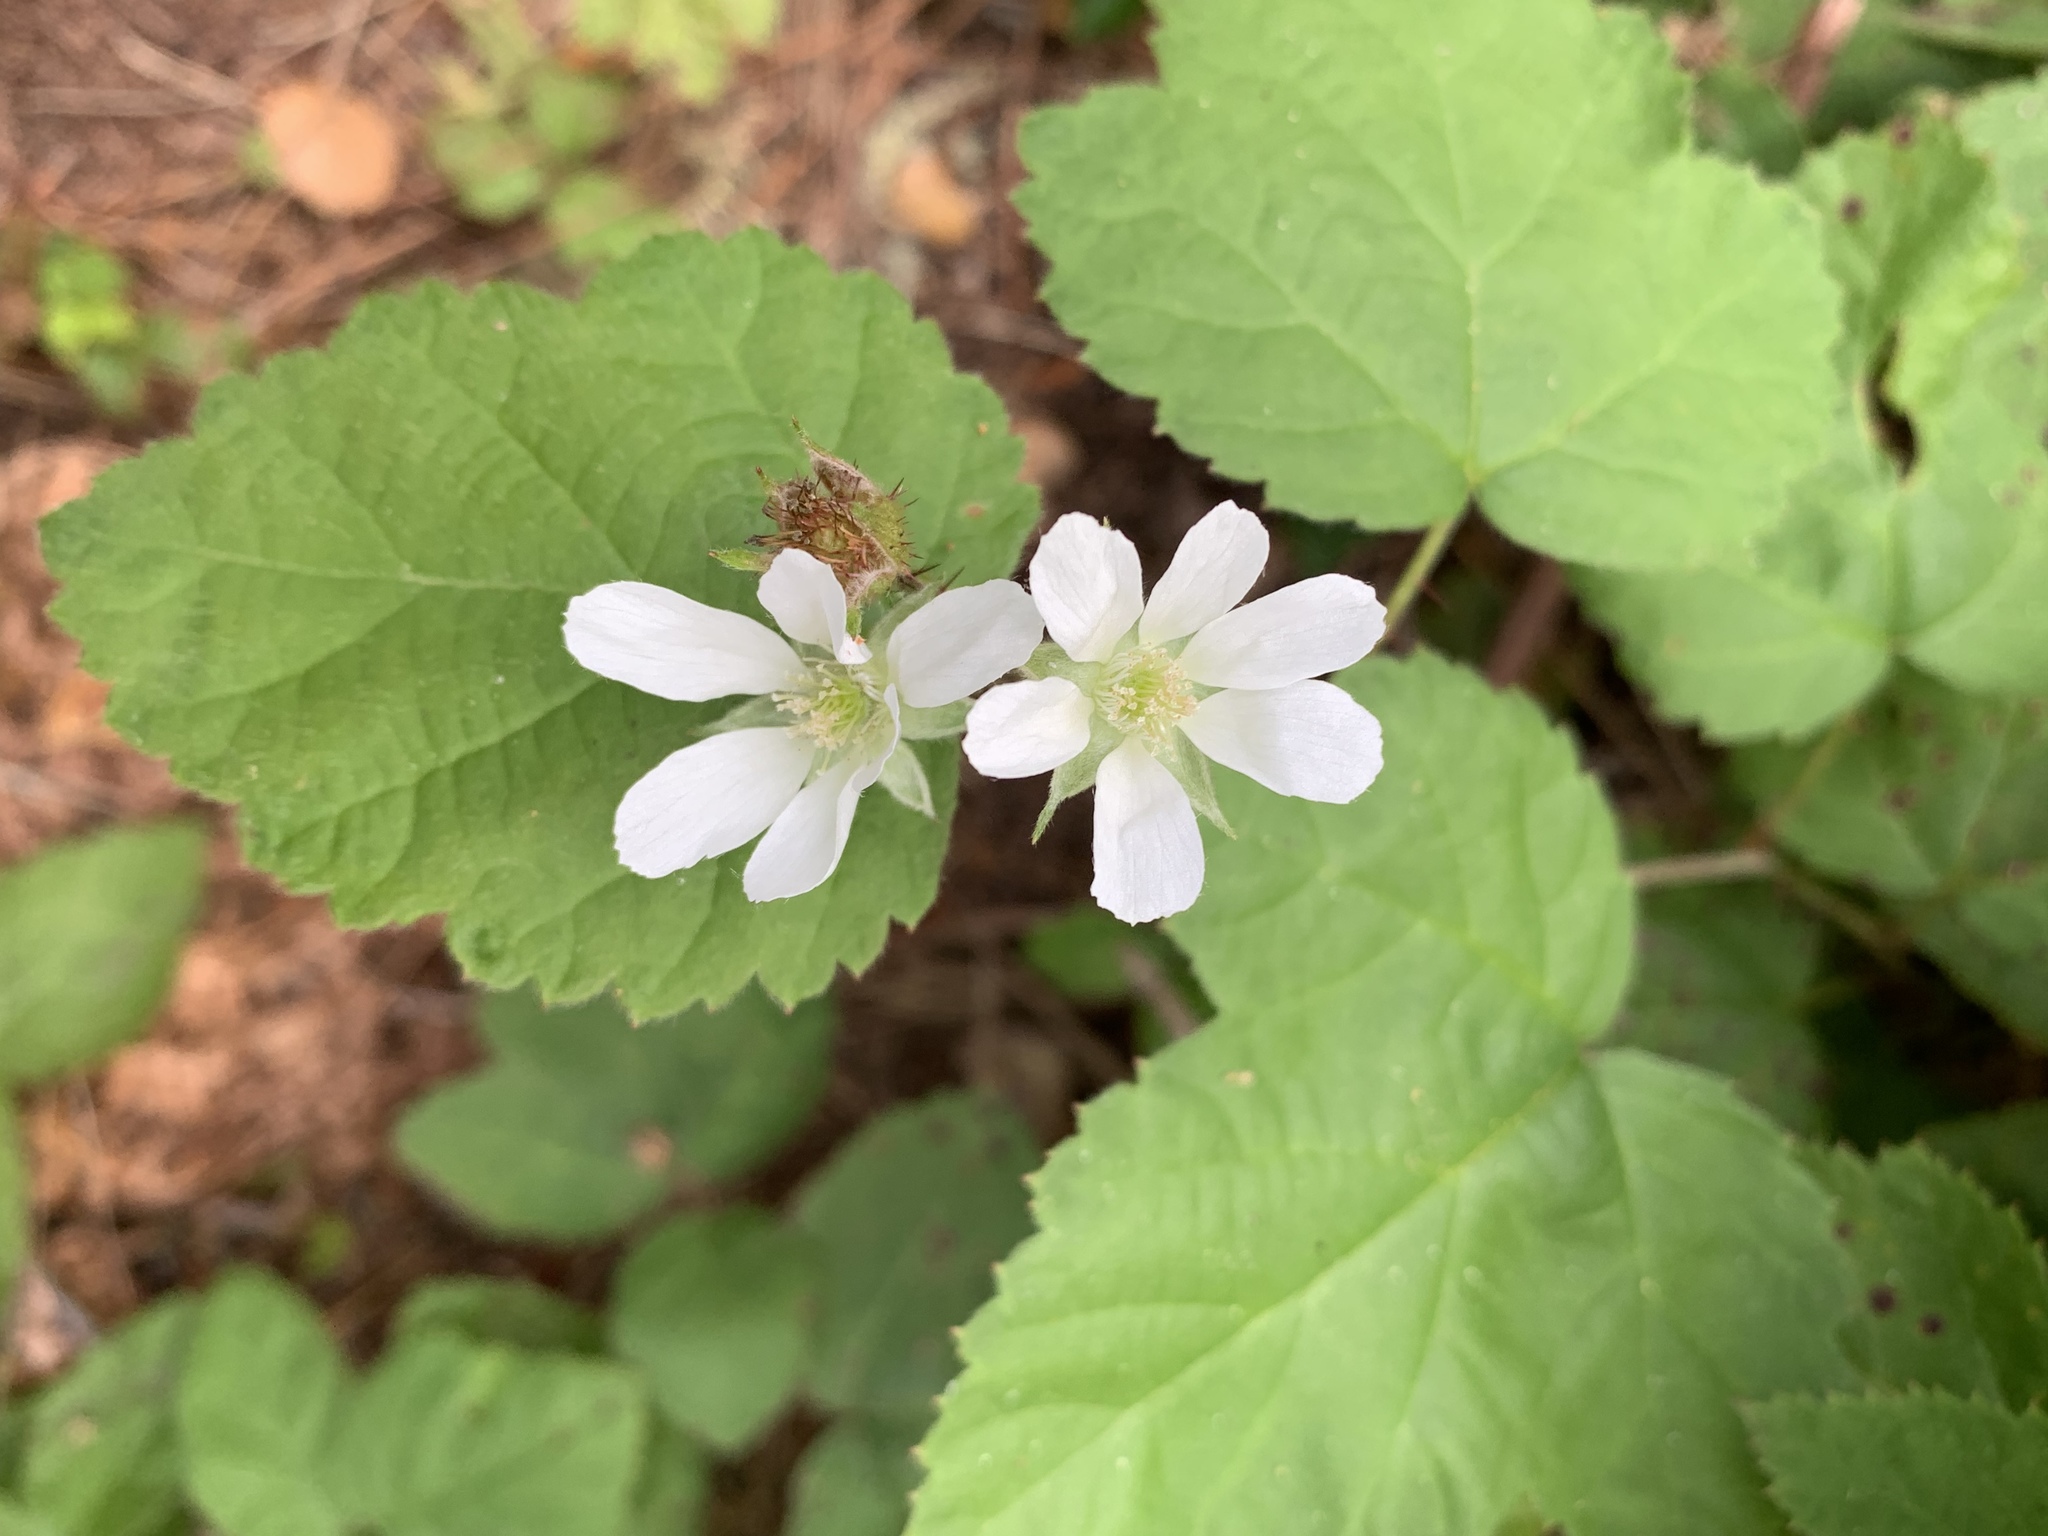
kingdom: Plantae
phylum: Tracheophyta
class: Magnoliopsida
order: Rosales
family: Rosaceae
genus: Rubus
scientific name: Rubus ursinus
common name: Pacific blackberry
